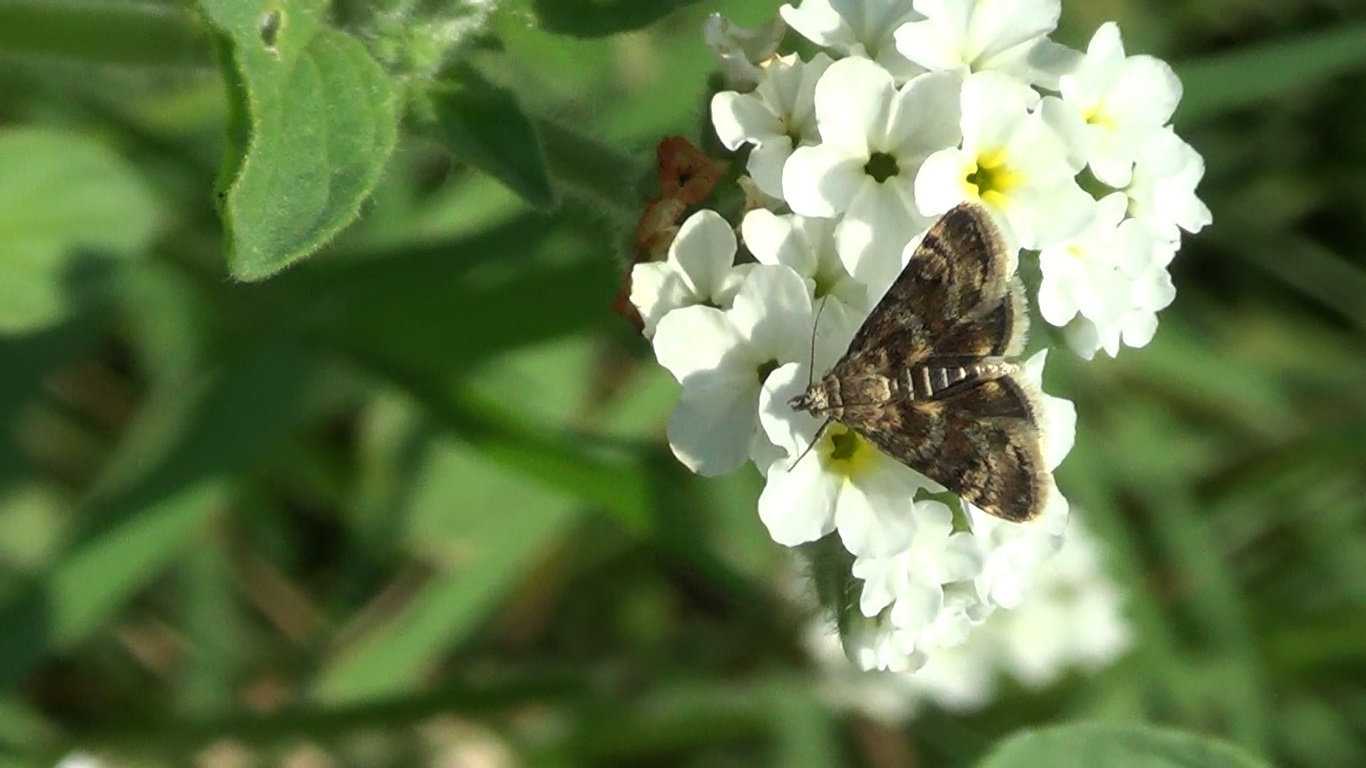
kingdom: Animalia
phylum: Arthropoda
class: Insecta
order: Lepidoptera
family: Crambidae
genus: Noctuelia
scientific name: Noctuelia Aporodes floralis
